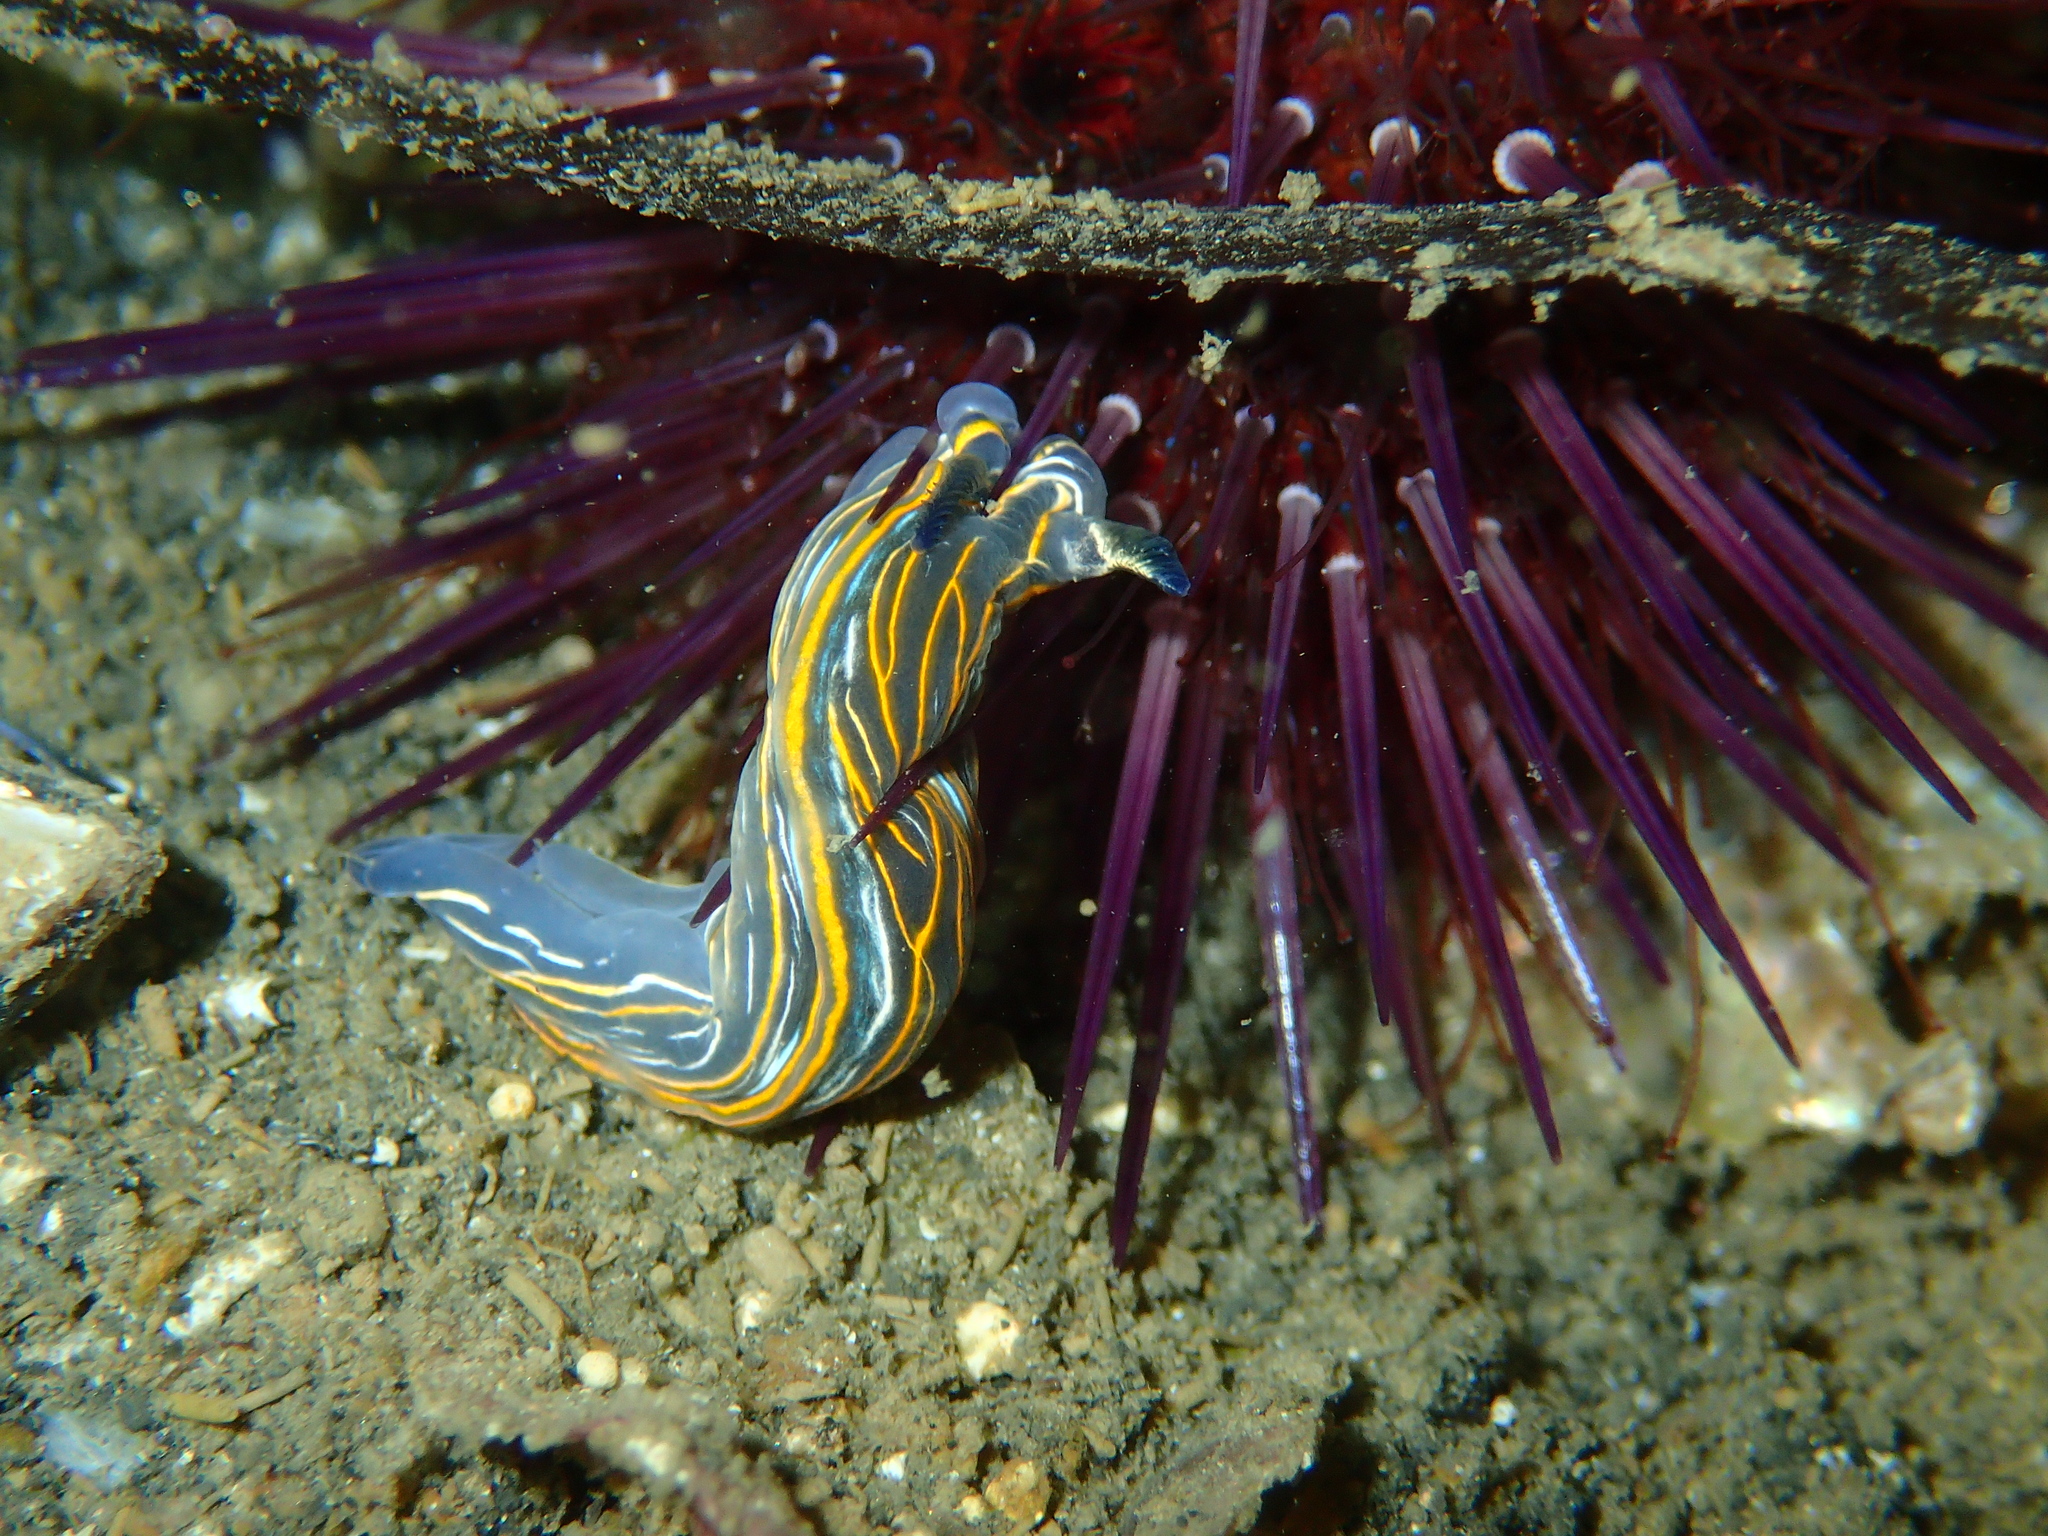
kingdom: Animalia
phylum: Mollusca
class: Gastropoda
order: Nudibranchia
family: Chromodorididae
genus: Felimare
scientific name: Felimare villafranca
